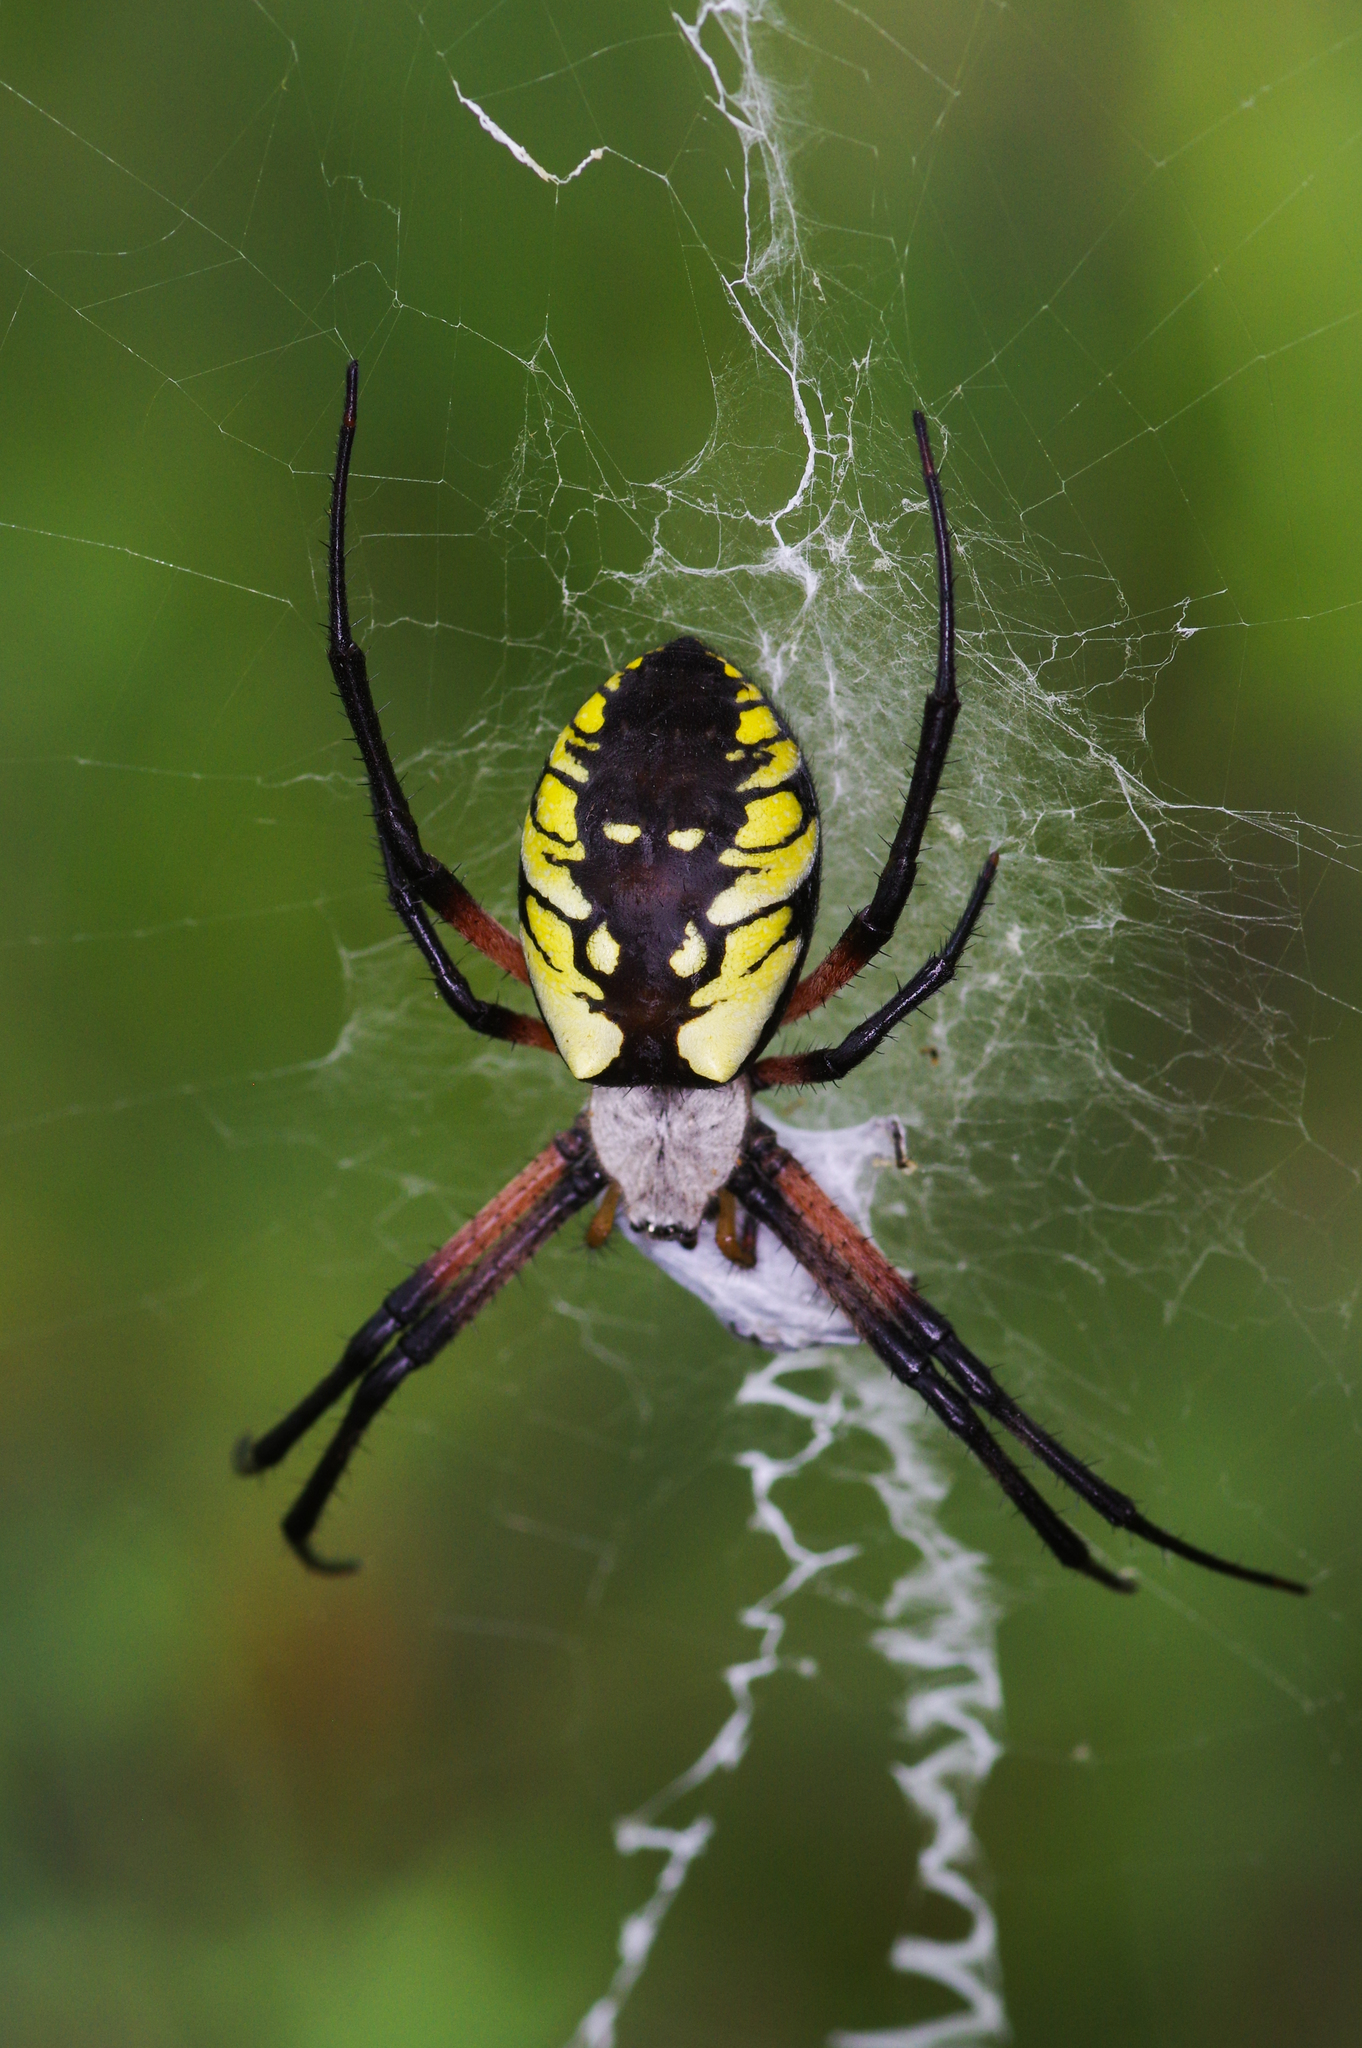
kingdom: Animalia
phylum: Arthropoda
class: Arachnida
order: Araneae
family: Araneidae
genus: Argiope
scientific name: Argiope aurantia
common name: Orb weavers
